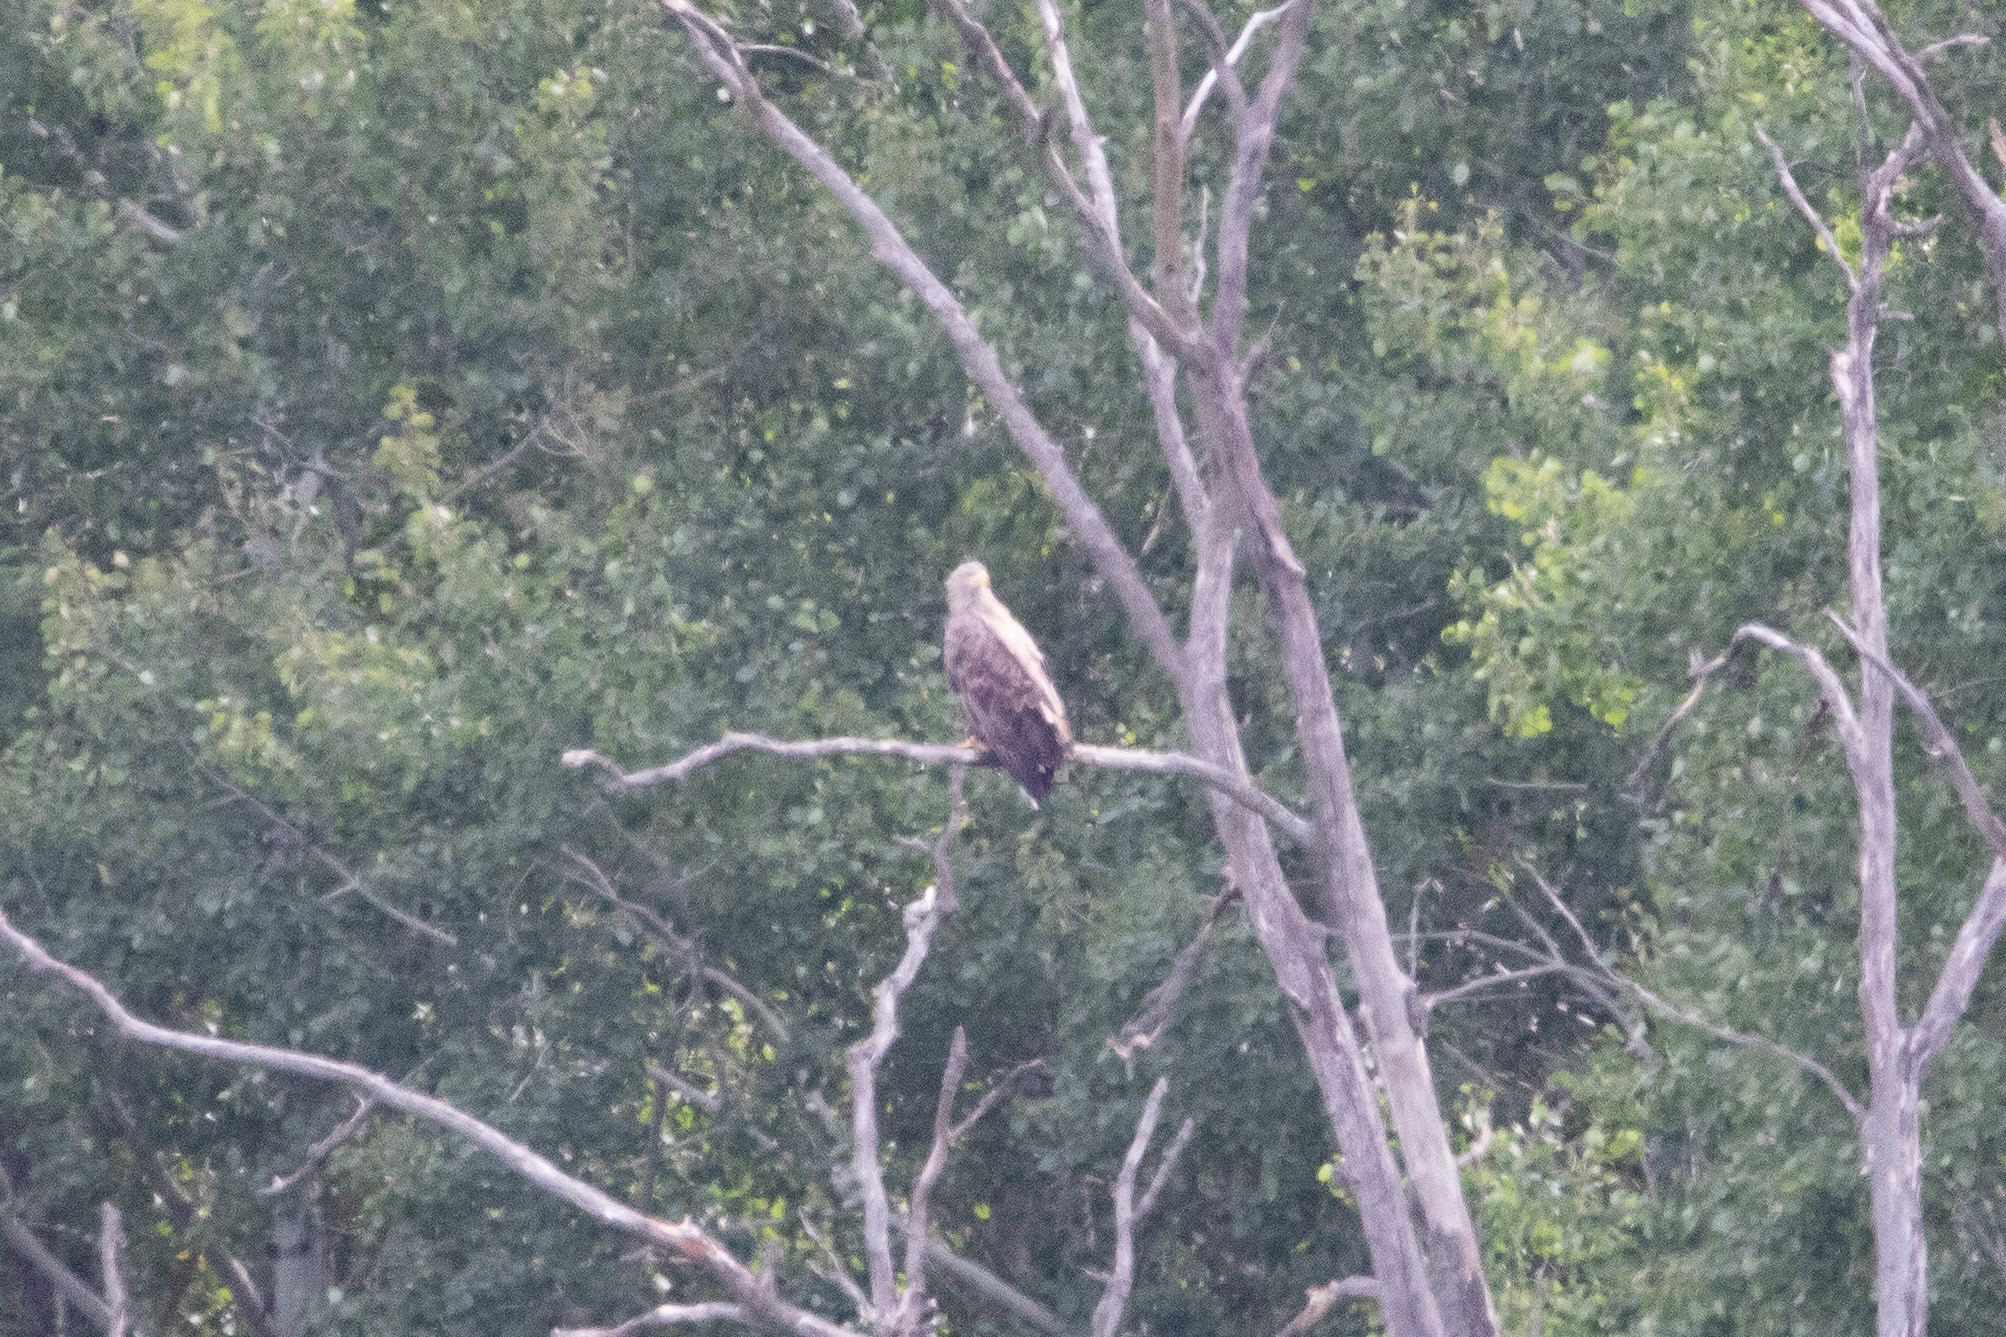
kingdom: Animalia
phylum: Chordata
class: Aves
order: Accipitriformes
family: Accipitridae
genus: Haliaeetus
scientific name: Haliaeetus albicilla
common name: White-tailed eagle
